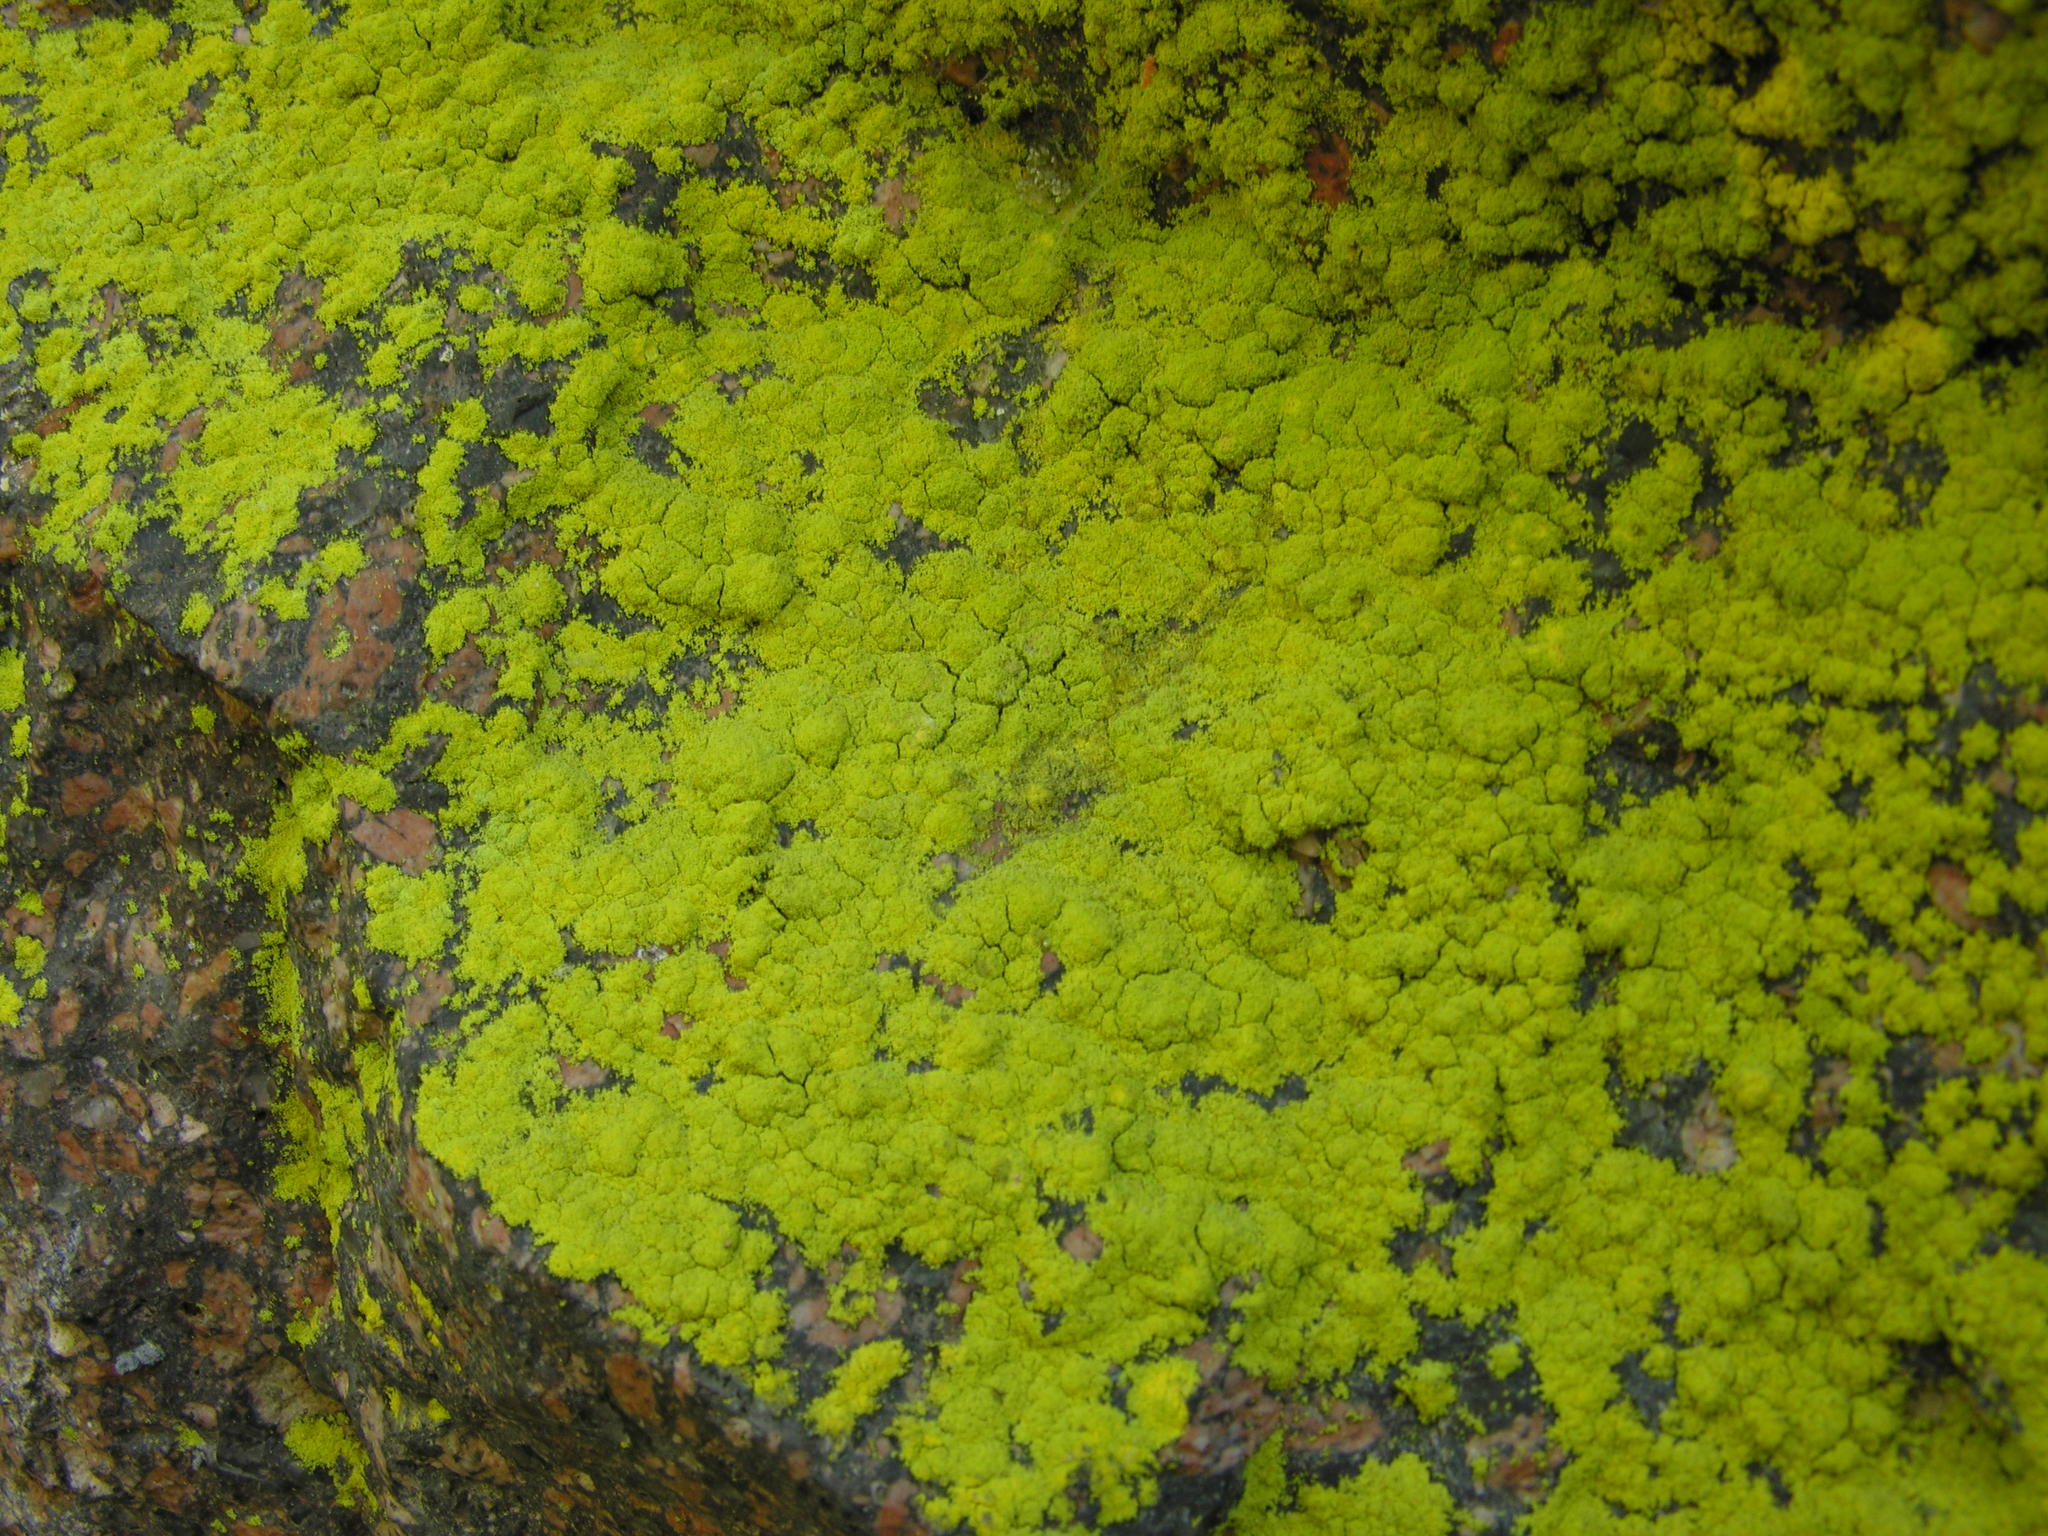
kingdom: Fungi
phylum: Ascomycota
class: Arthoniomycetes
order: Arthoniales
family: Chrysotrichaceae
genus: Chrysothrix
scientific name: Chrysothrix
